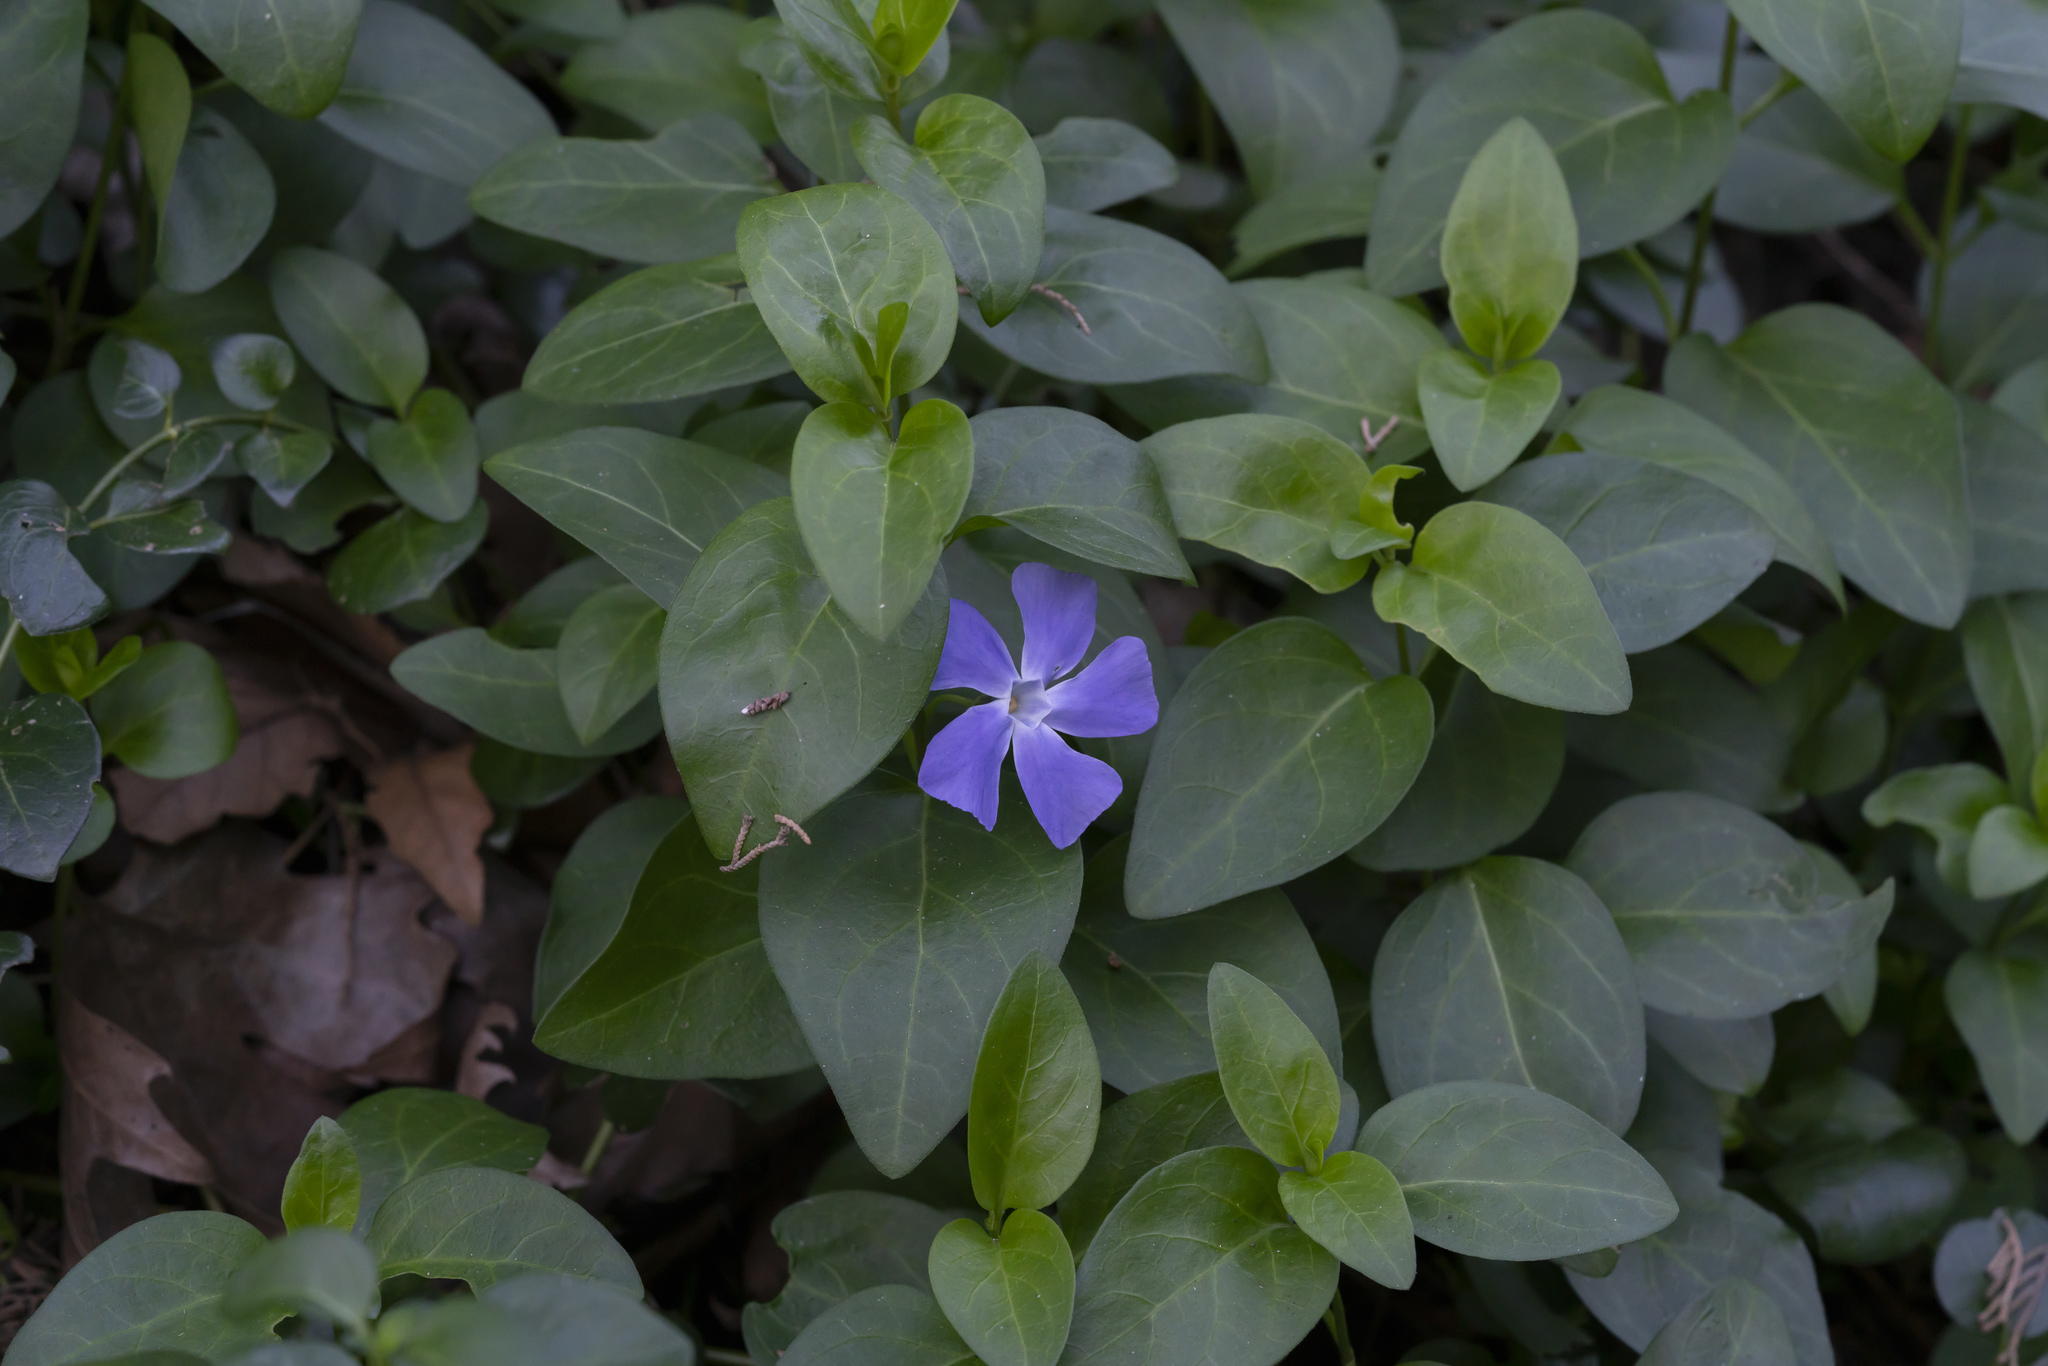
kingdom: Plantae
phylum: Tracheophyta
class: Magnoliopsida
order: Gentianales
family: Apocynaceae
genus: Vinca
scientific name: Vinca major
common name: Greater periwinkle
